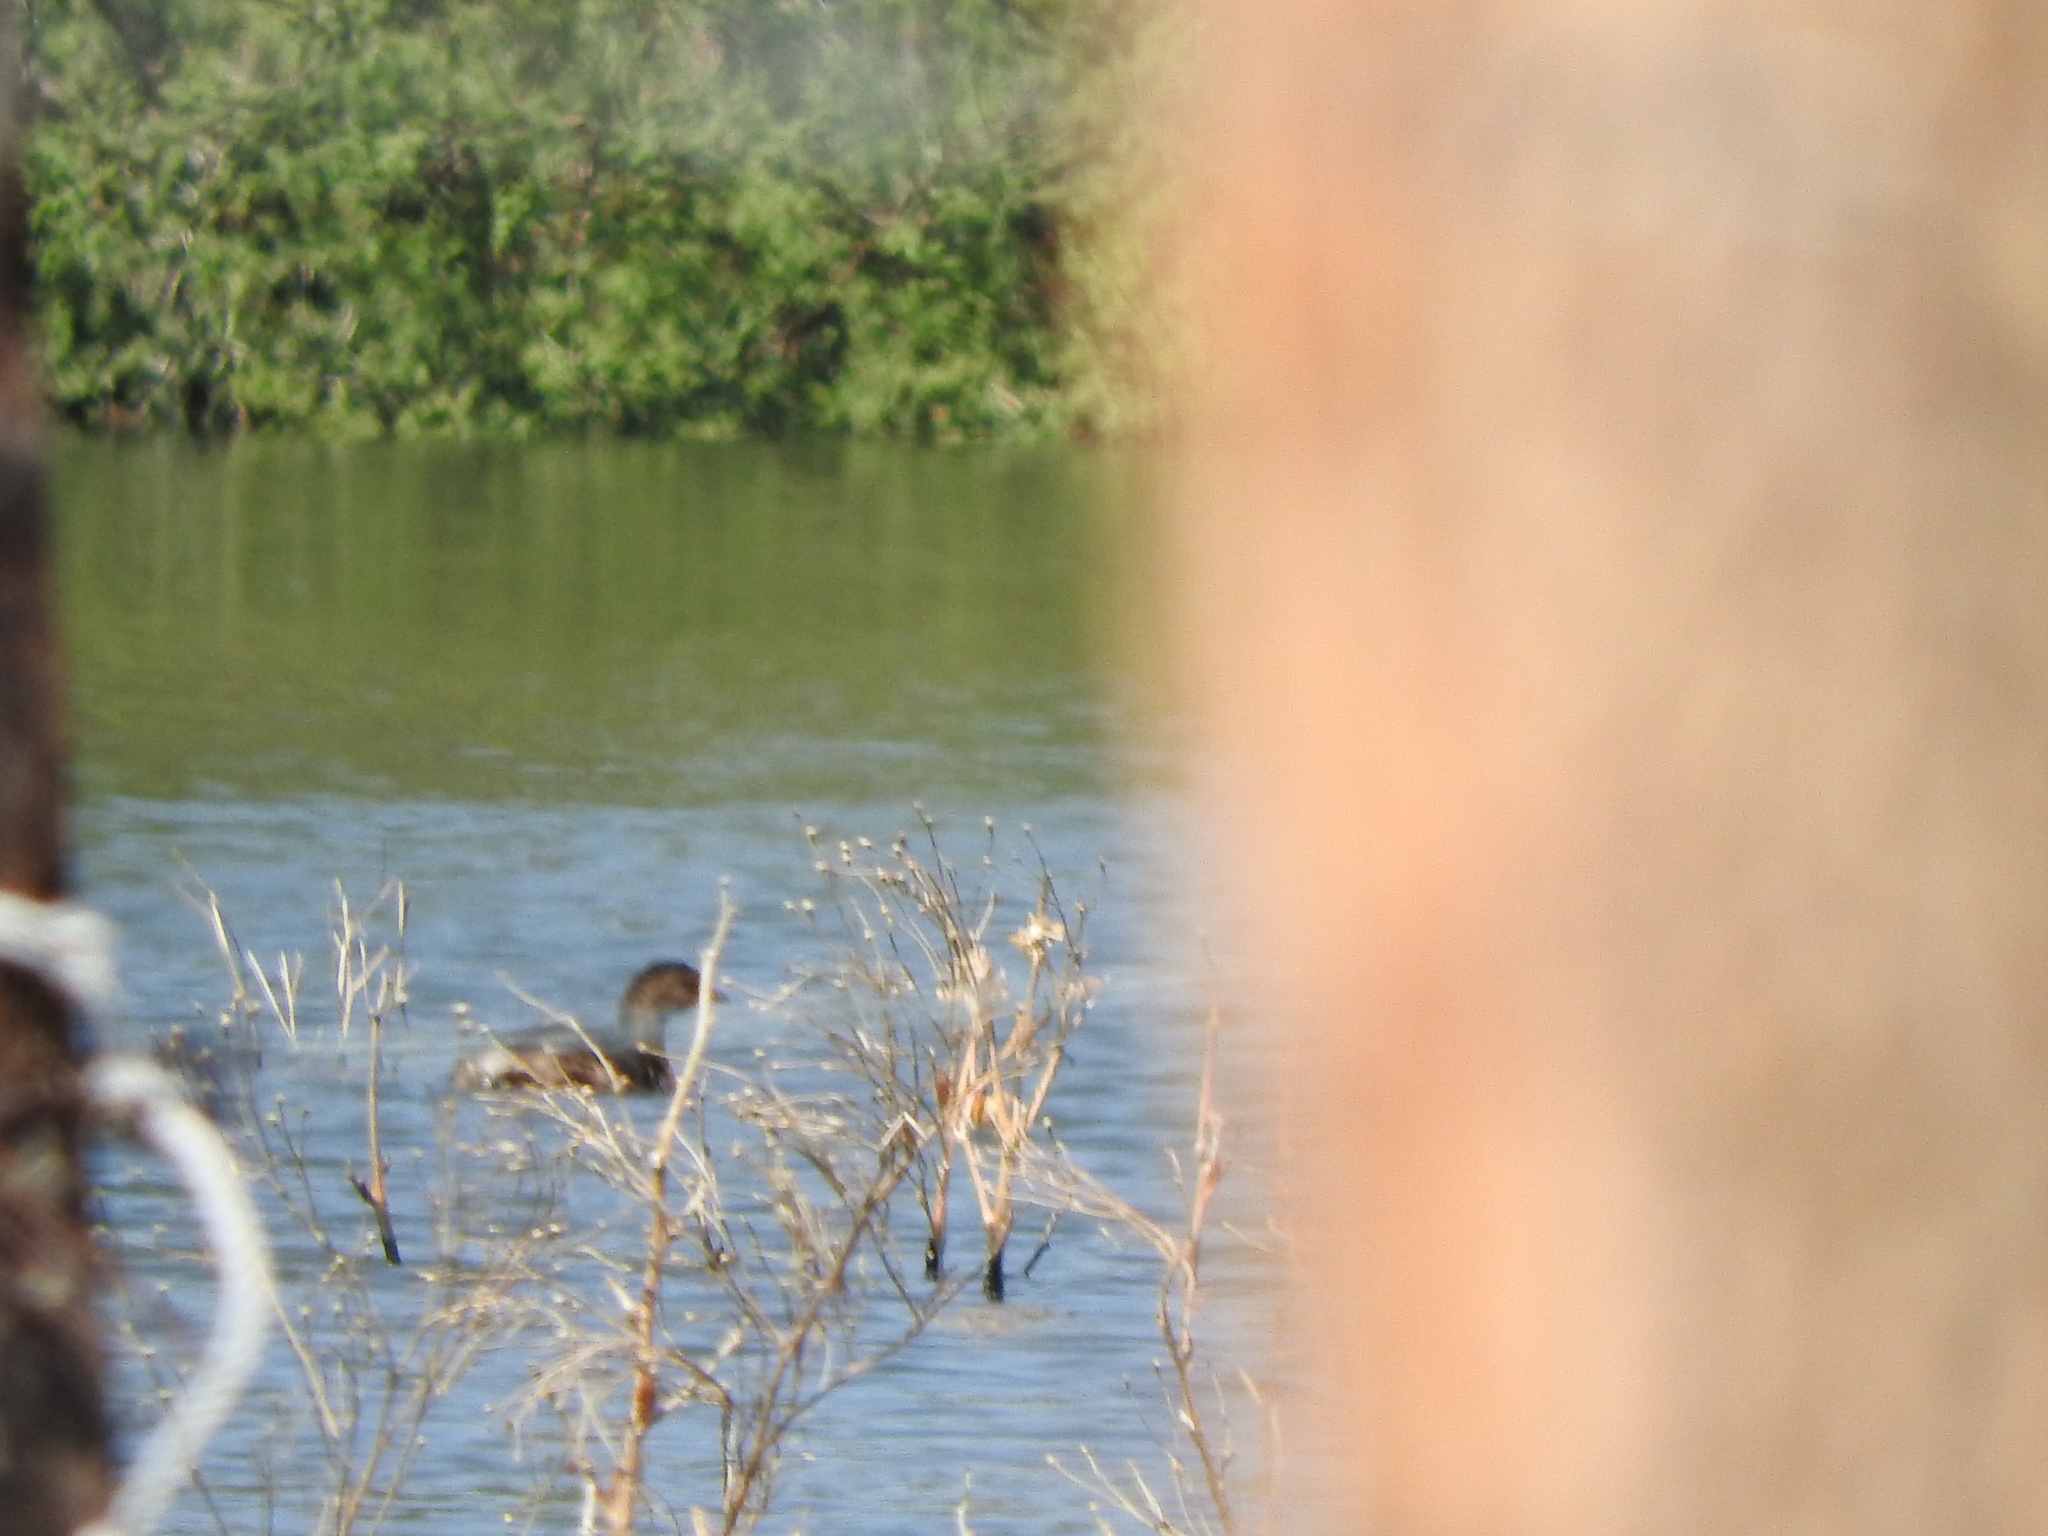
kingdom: Animalia
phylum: Chordata
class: Aves
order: Podicipediformes
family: Podicipedidae
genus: Podilymbus
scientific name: Podilymbus podiceps
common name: Pied-billed grebe
